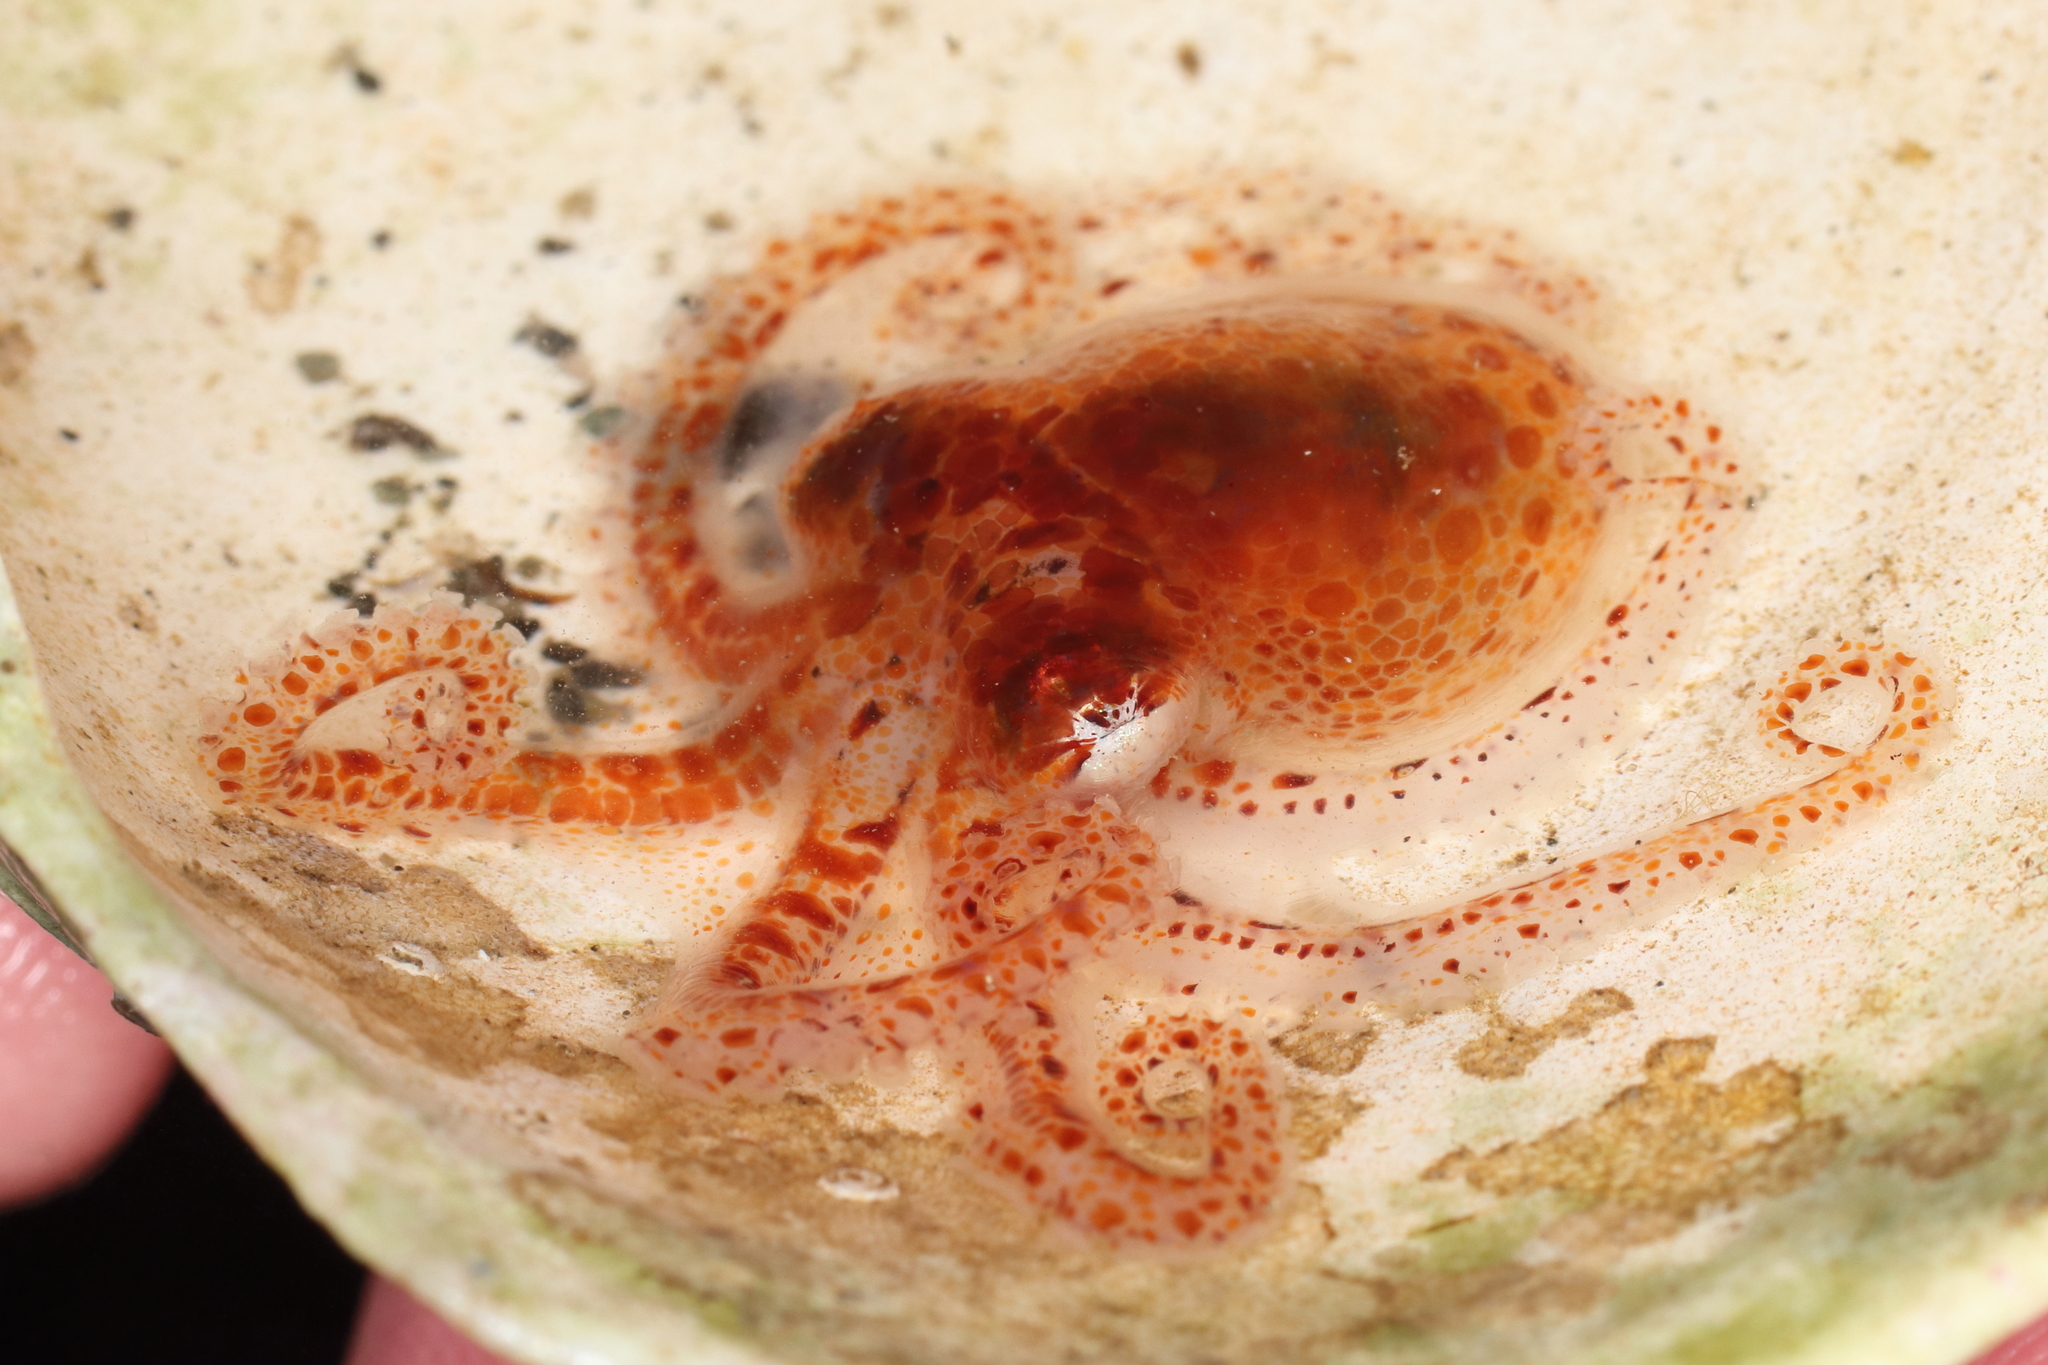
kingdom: Animalia
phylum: Mollusca
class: Cephalopoda
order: Octopoda
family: Enteroctopodidae
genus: Enteroctopus
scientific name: Enteroctopus dofleini
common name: Giant north pacific octopus
